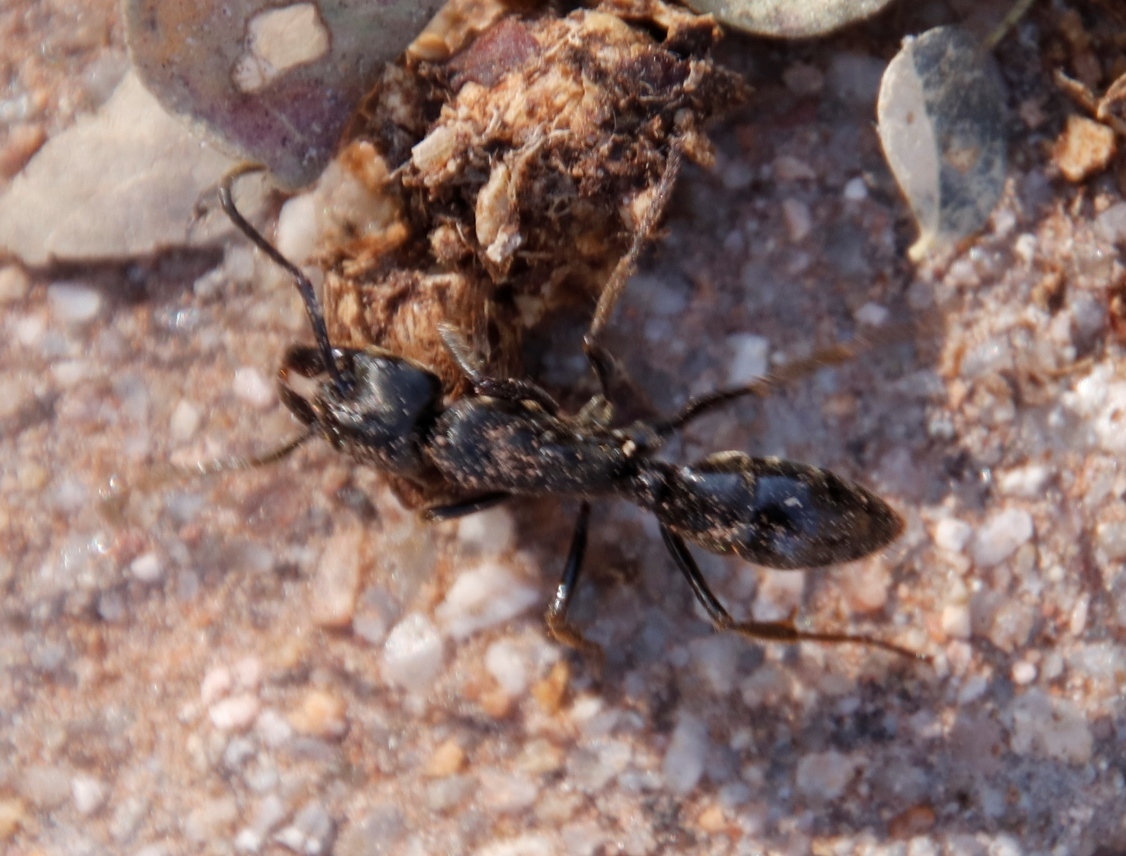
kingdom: Animalia
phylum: Arthropoda
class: Insecta
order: Hymenoptera
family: Formicidae
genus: Paltothyreus
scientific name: Paltothyreus tarsatus
